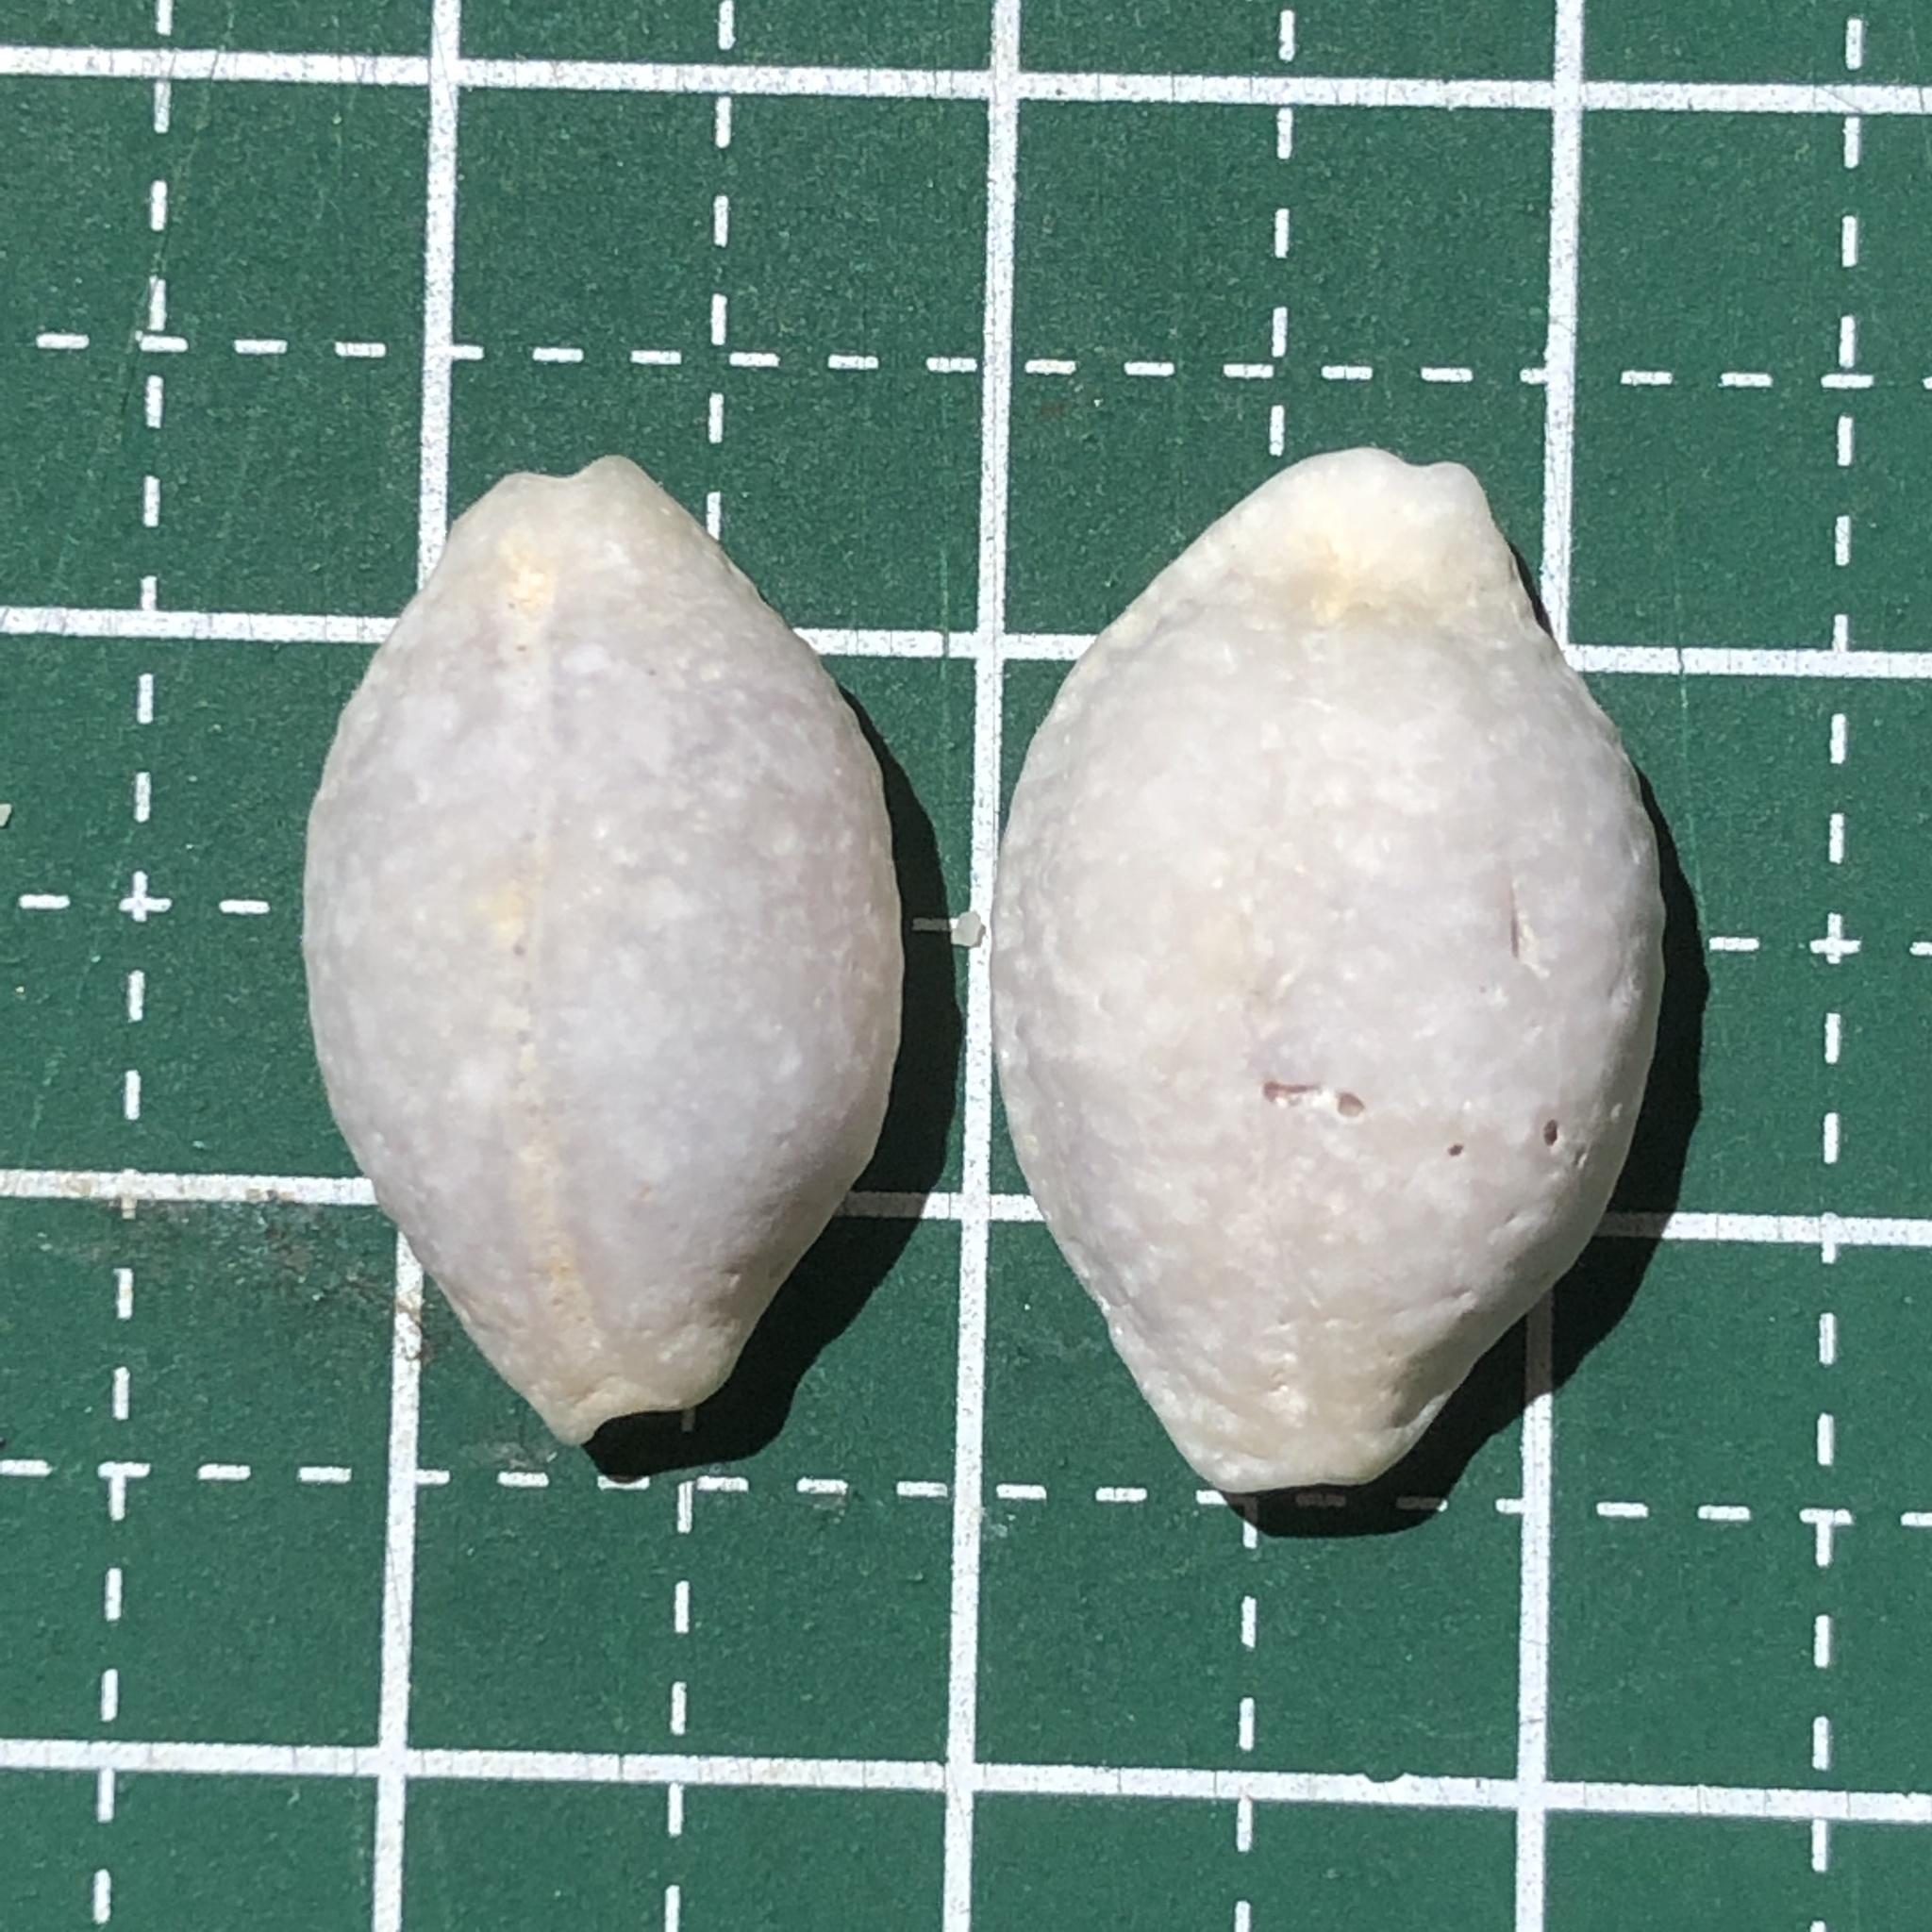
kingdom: Animalia
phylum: Mollusca
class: Gastropoda
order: Littorinimorpha
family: Cypraeidae
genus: Nucleolaria
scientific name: Nucleolaria nucleus
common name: Kernel cowry
